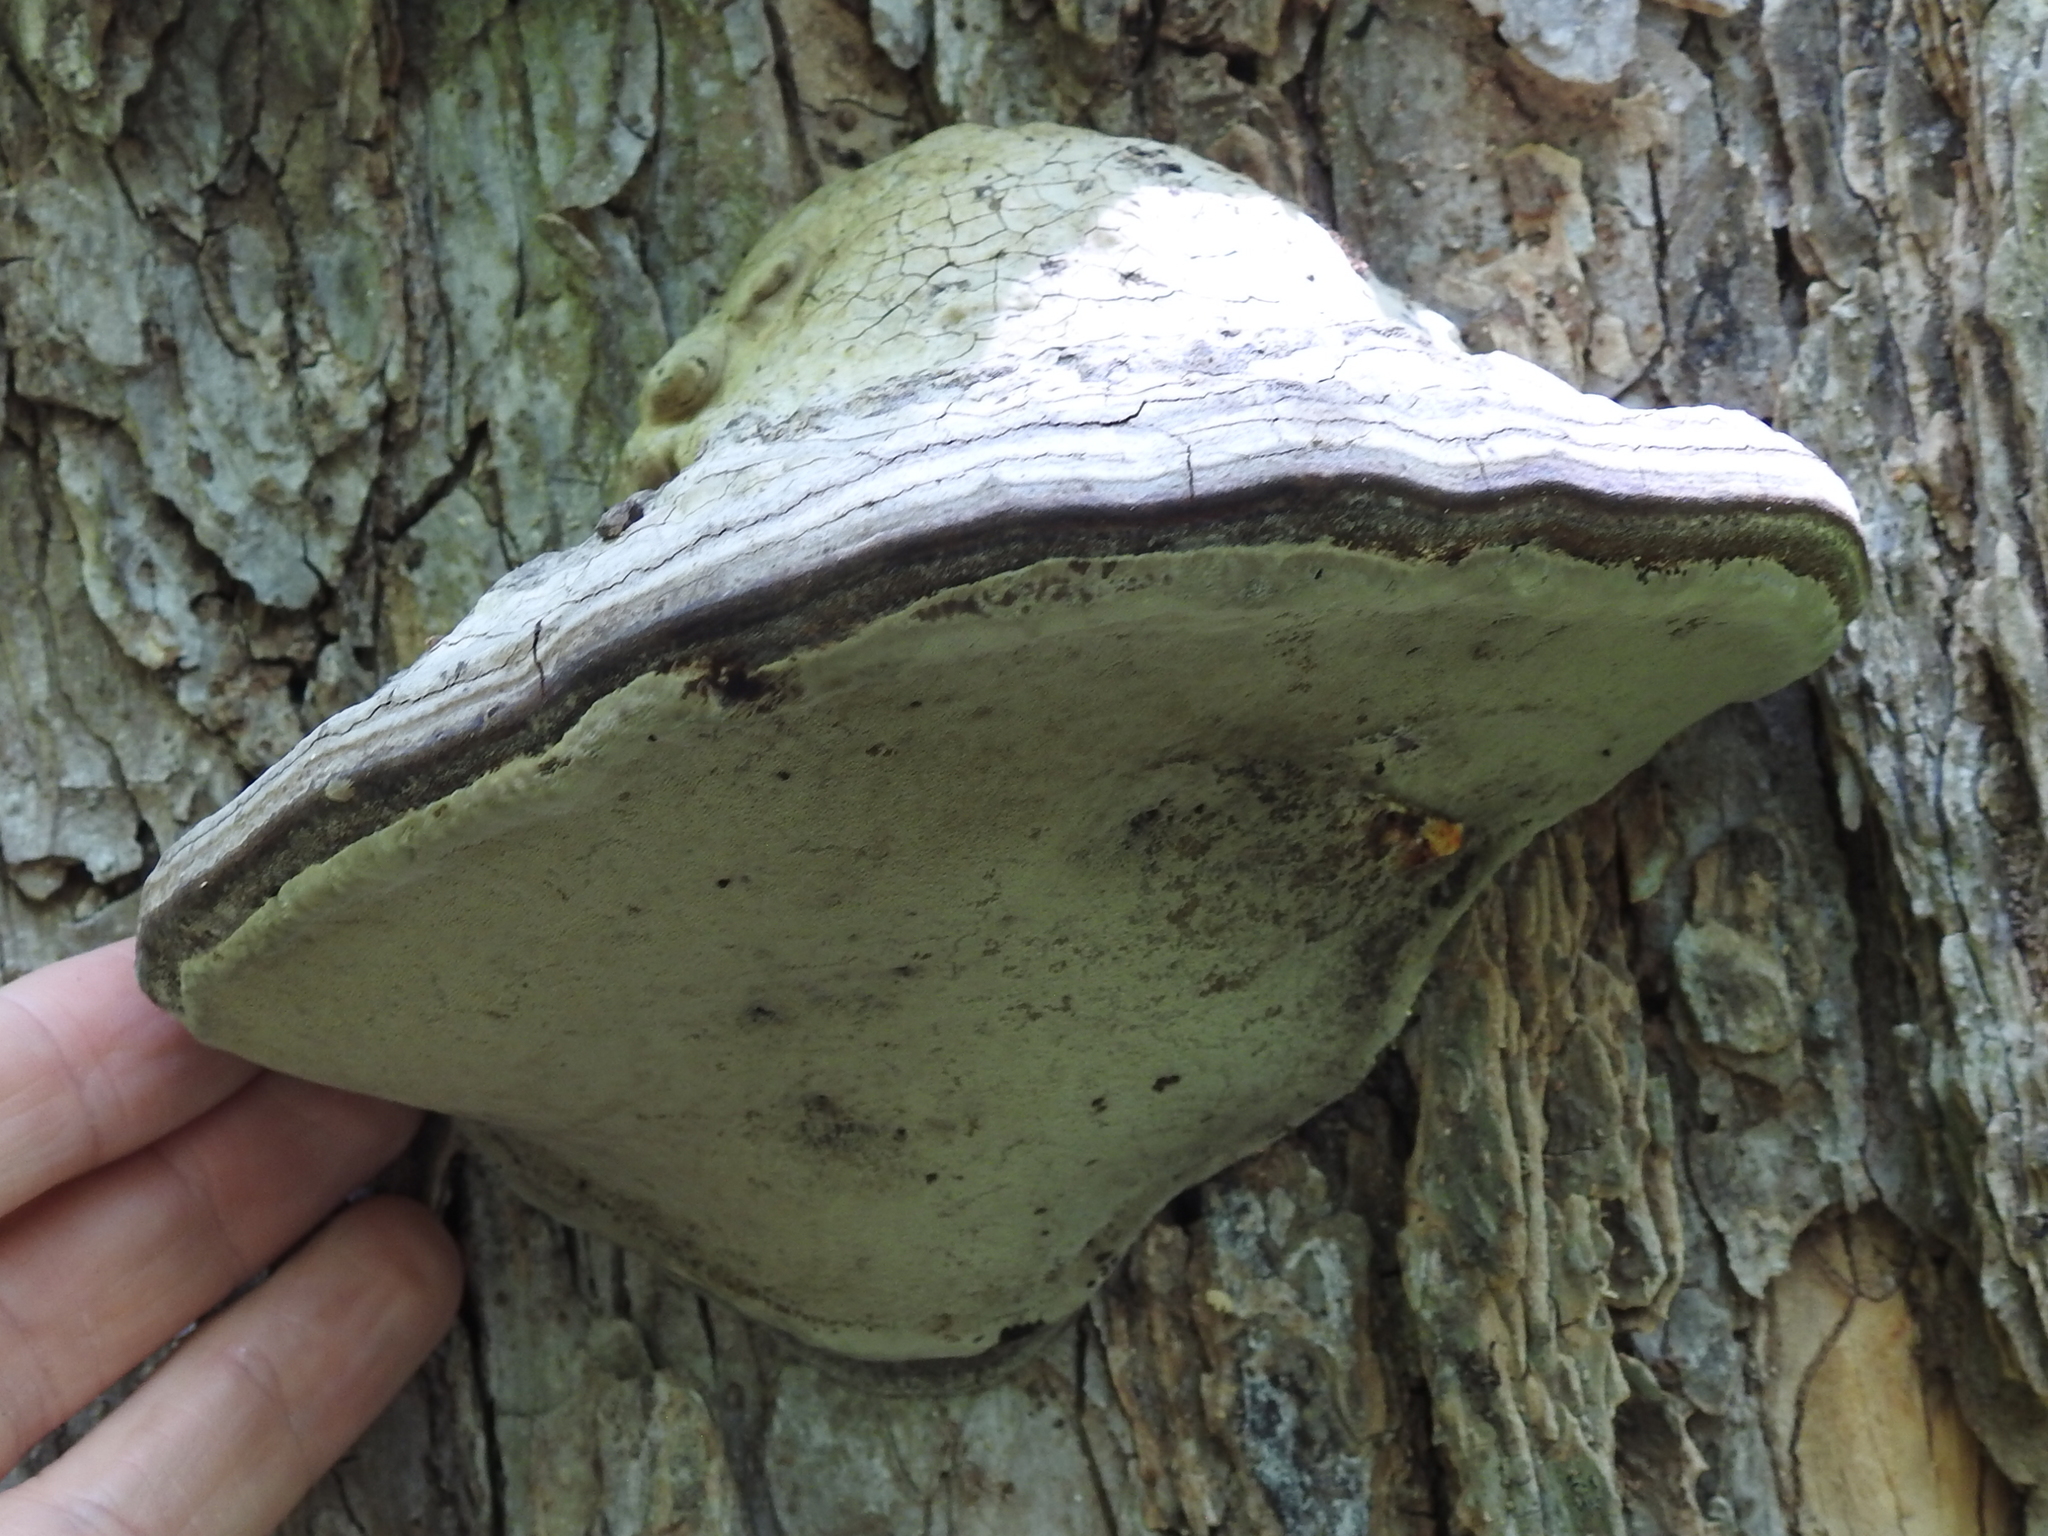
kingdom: Fungi
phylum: Basidiomycota
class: Agaricomycetes
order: Polyporales
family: Polyporaceae
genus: Fomes
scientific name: Fomes fomentarius
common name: Hoof fungus
